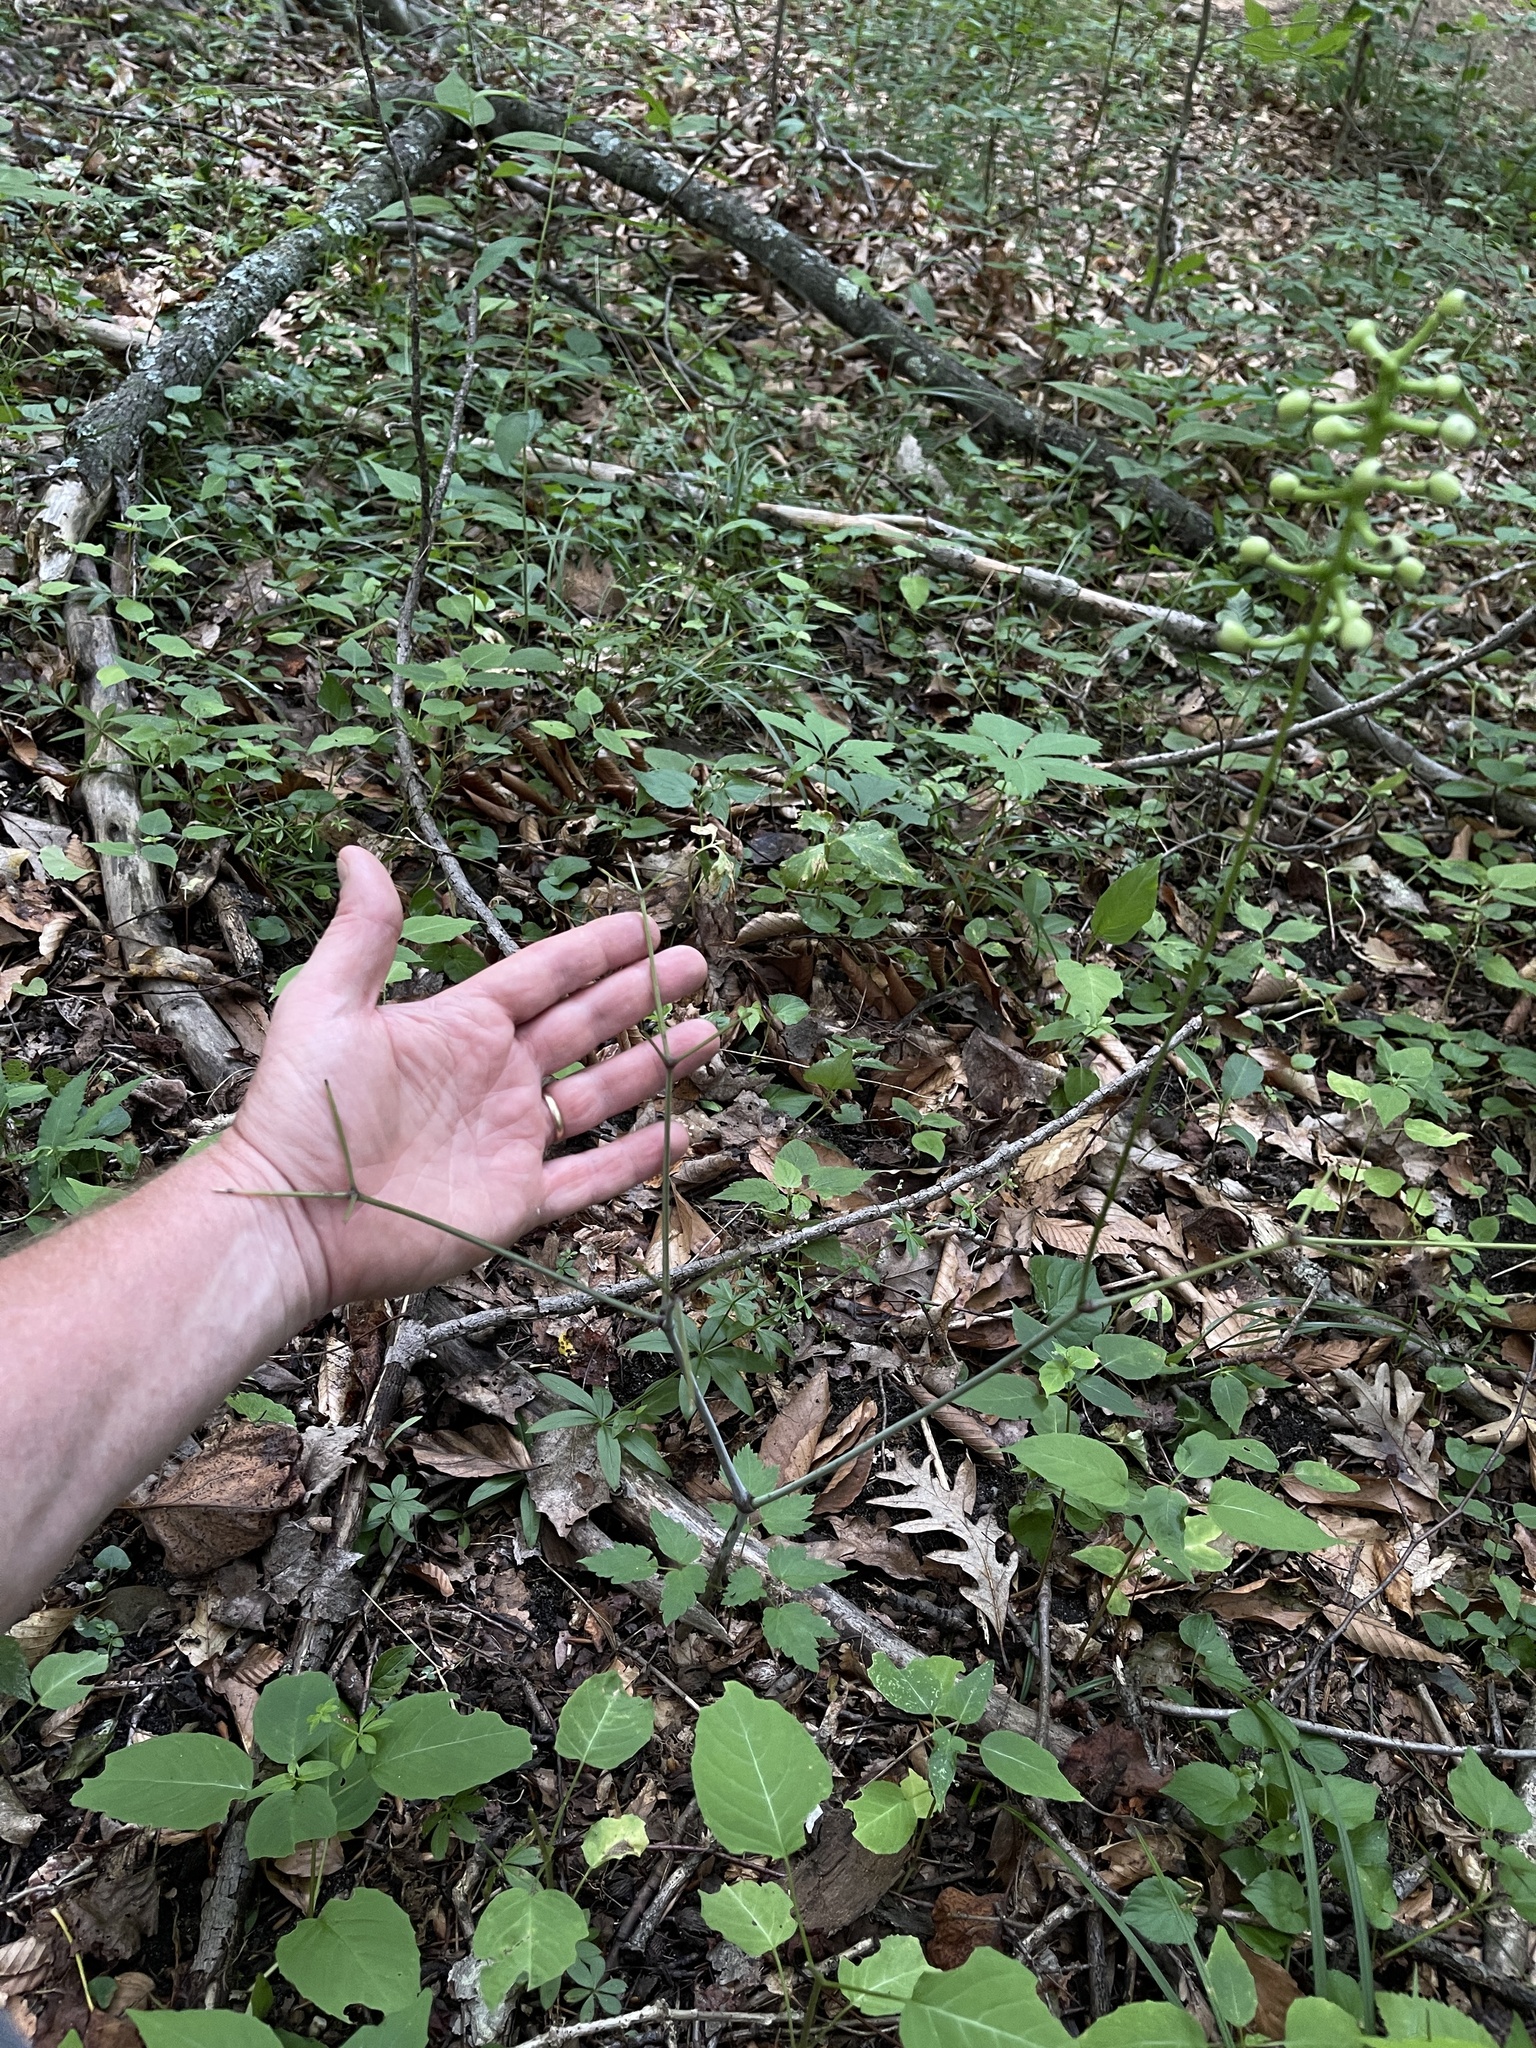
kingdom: Plantae
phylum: Tracheophyta
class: Magnoliopsida
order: Ranunculales
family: Ranunculaceae
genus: Actaea
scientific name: Actaea pachypoda
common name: Doll's-eyes
